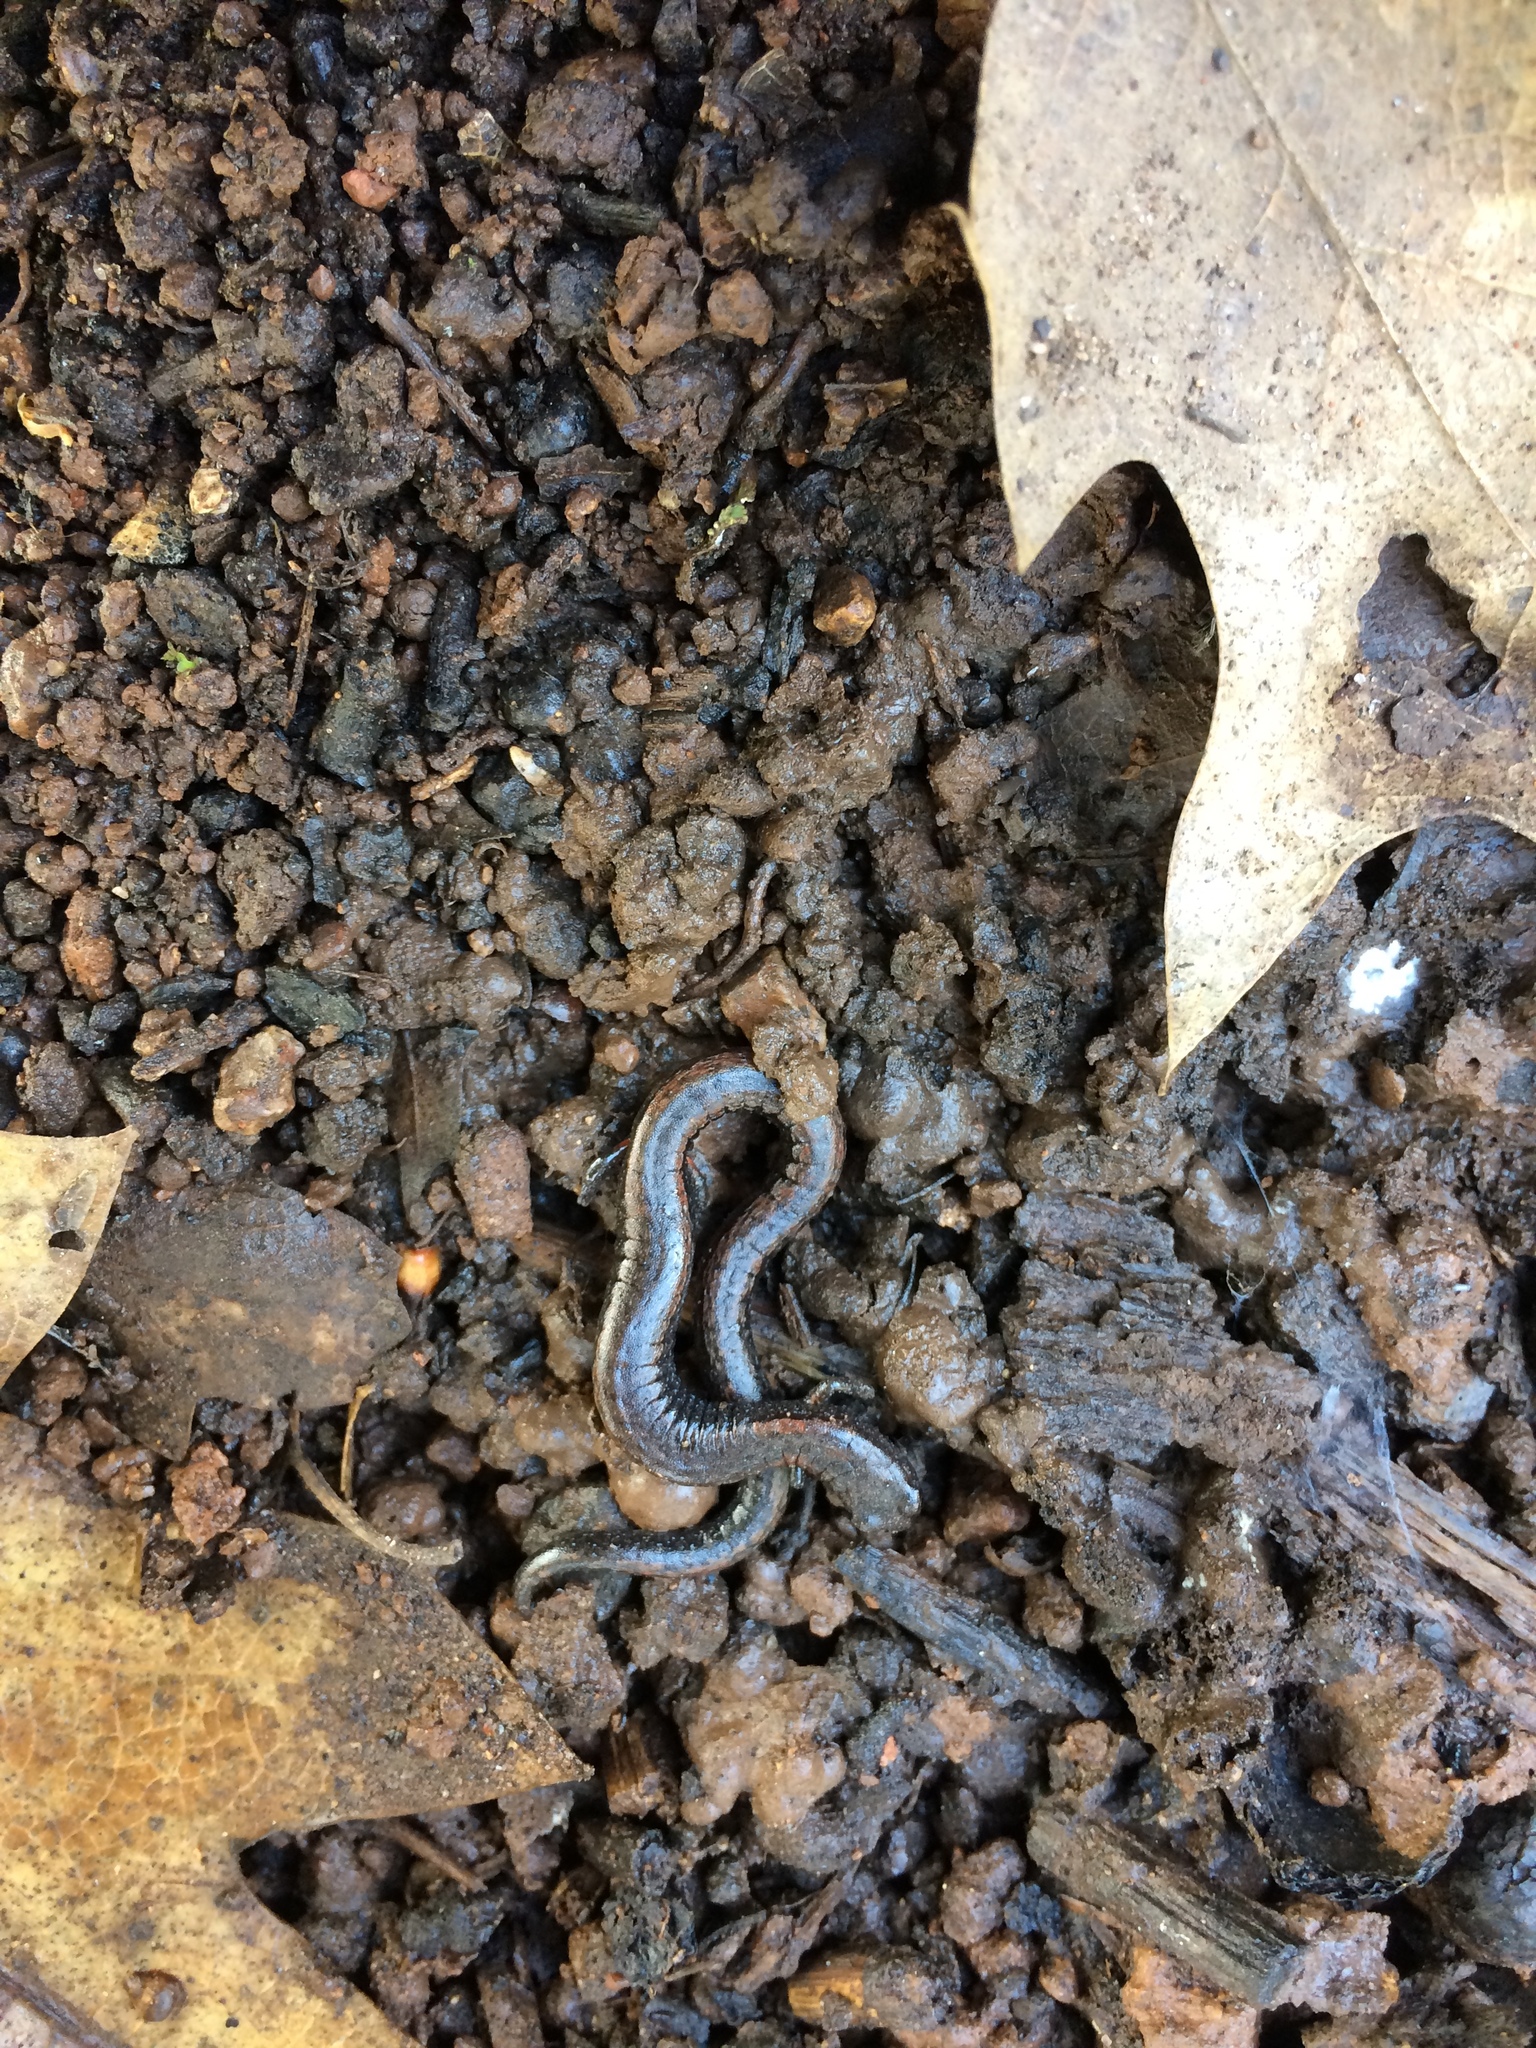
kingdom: Animalia
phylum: Chordata
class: Amphibia
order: Caudata
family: Plethodontidae
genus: Batrachoseps
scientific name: Batrachoseps attenuatus
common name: California slender salamander
